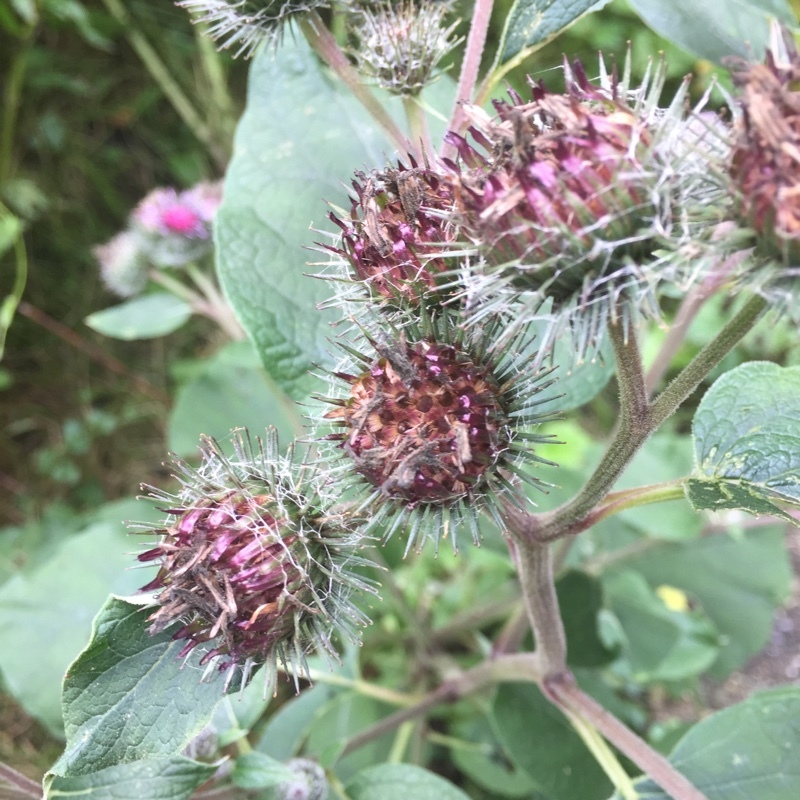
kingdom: Plantae
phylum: Tracheophyta
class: Magnoliopsida
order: Asterales
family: Asteraceae
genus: Arctium
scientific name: Arctium tomentosum
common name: Woolly burdock
